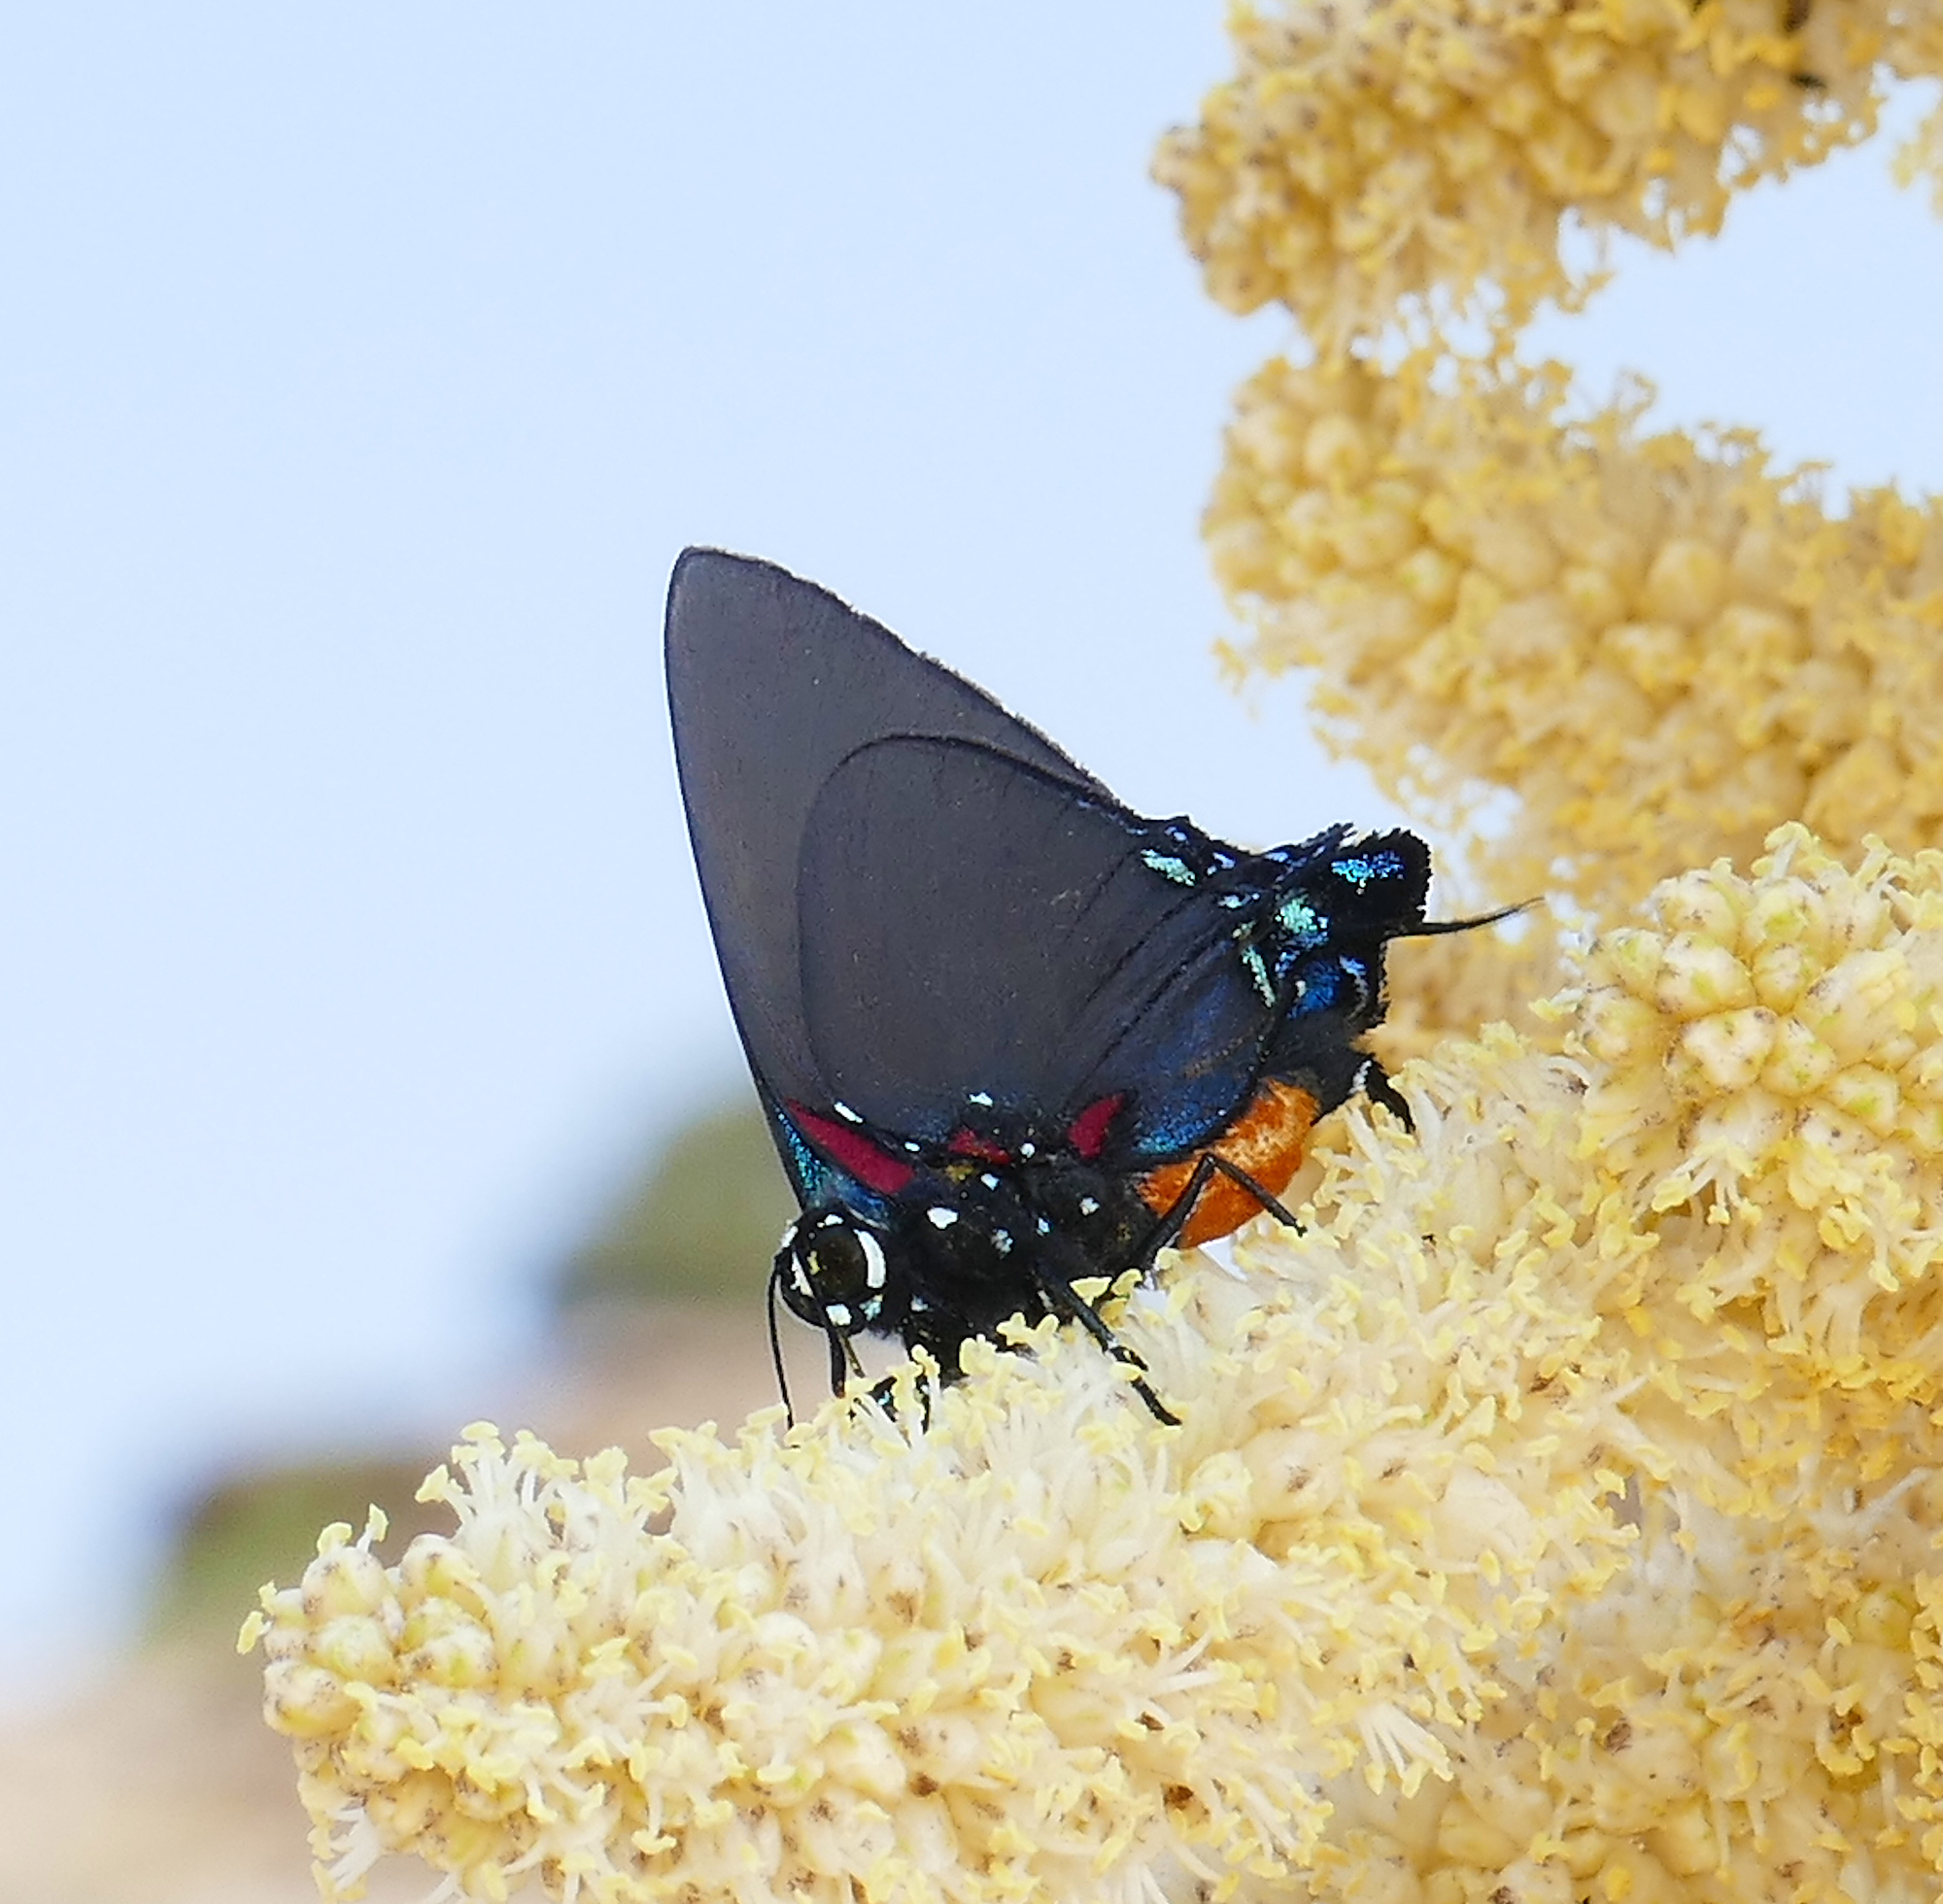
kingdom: Animalia
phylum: Arthropoda
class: Insecta
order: Lepidoptera
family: Lycaenidae
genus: Atlides
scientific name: Atlides halesus
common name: Great purple hairstreak
